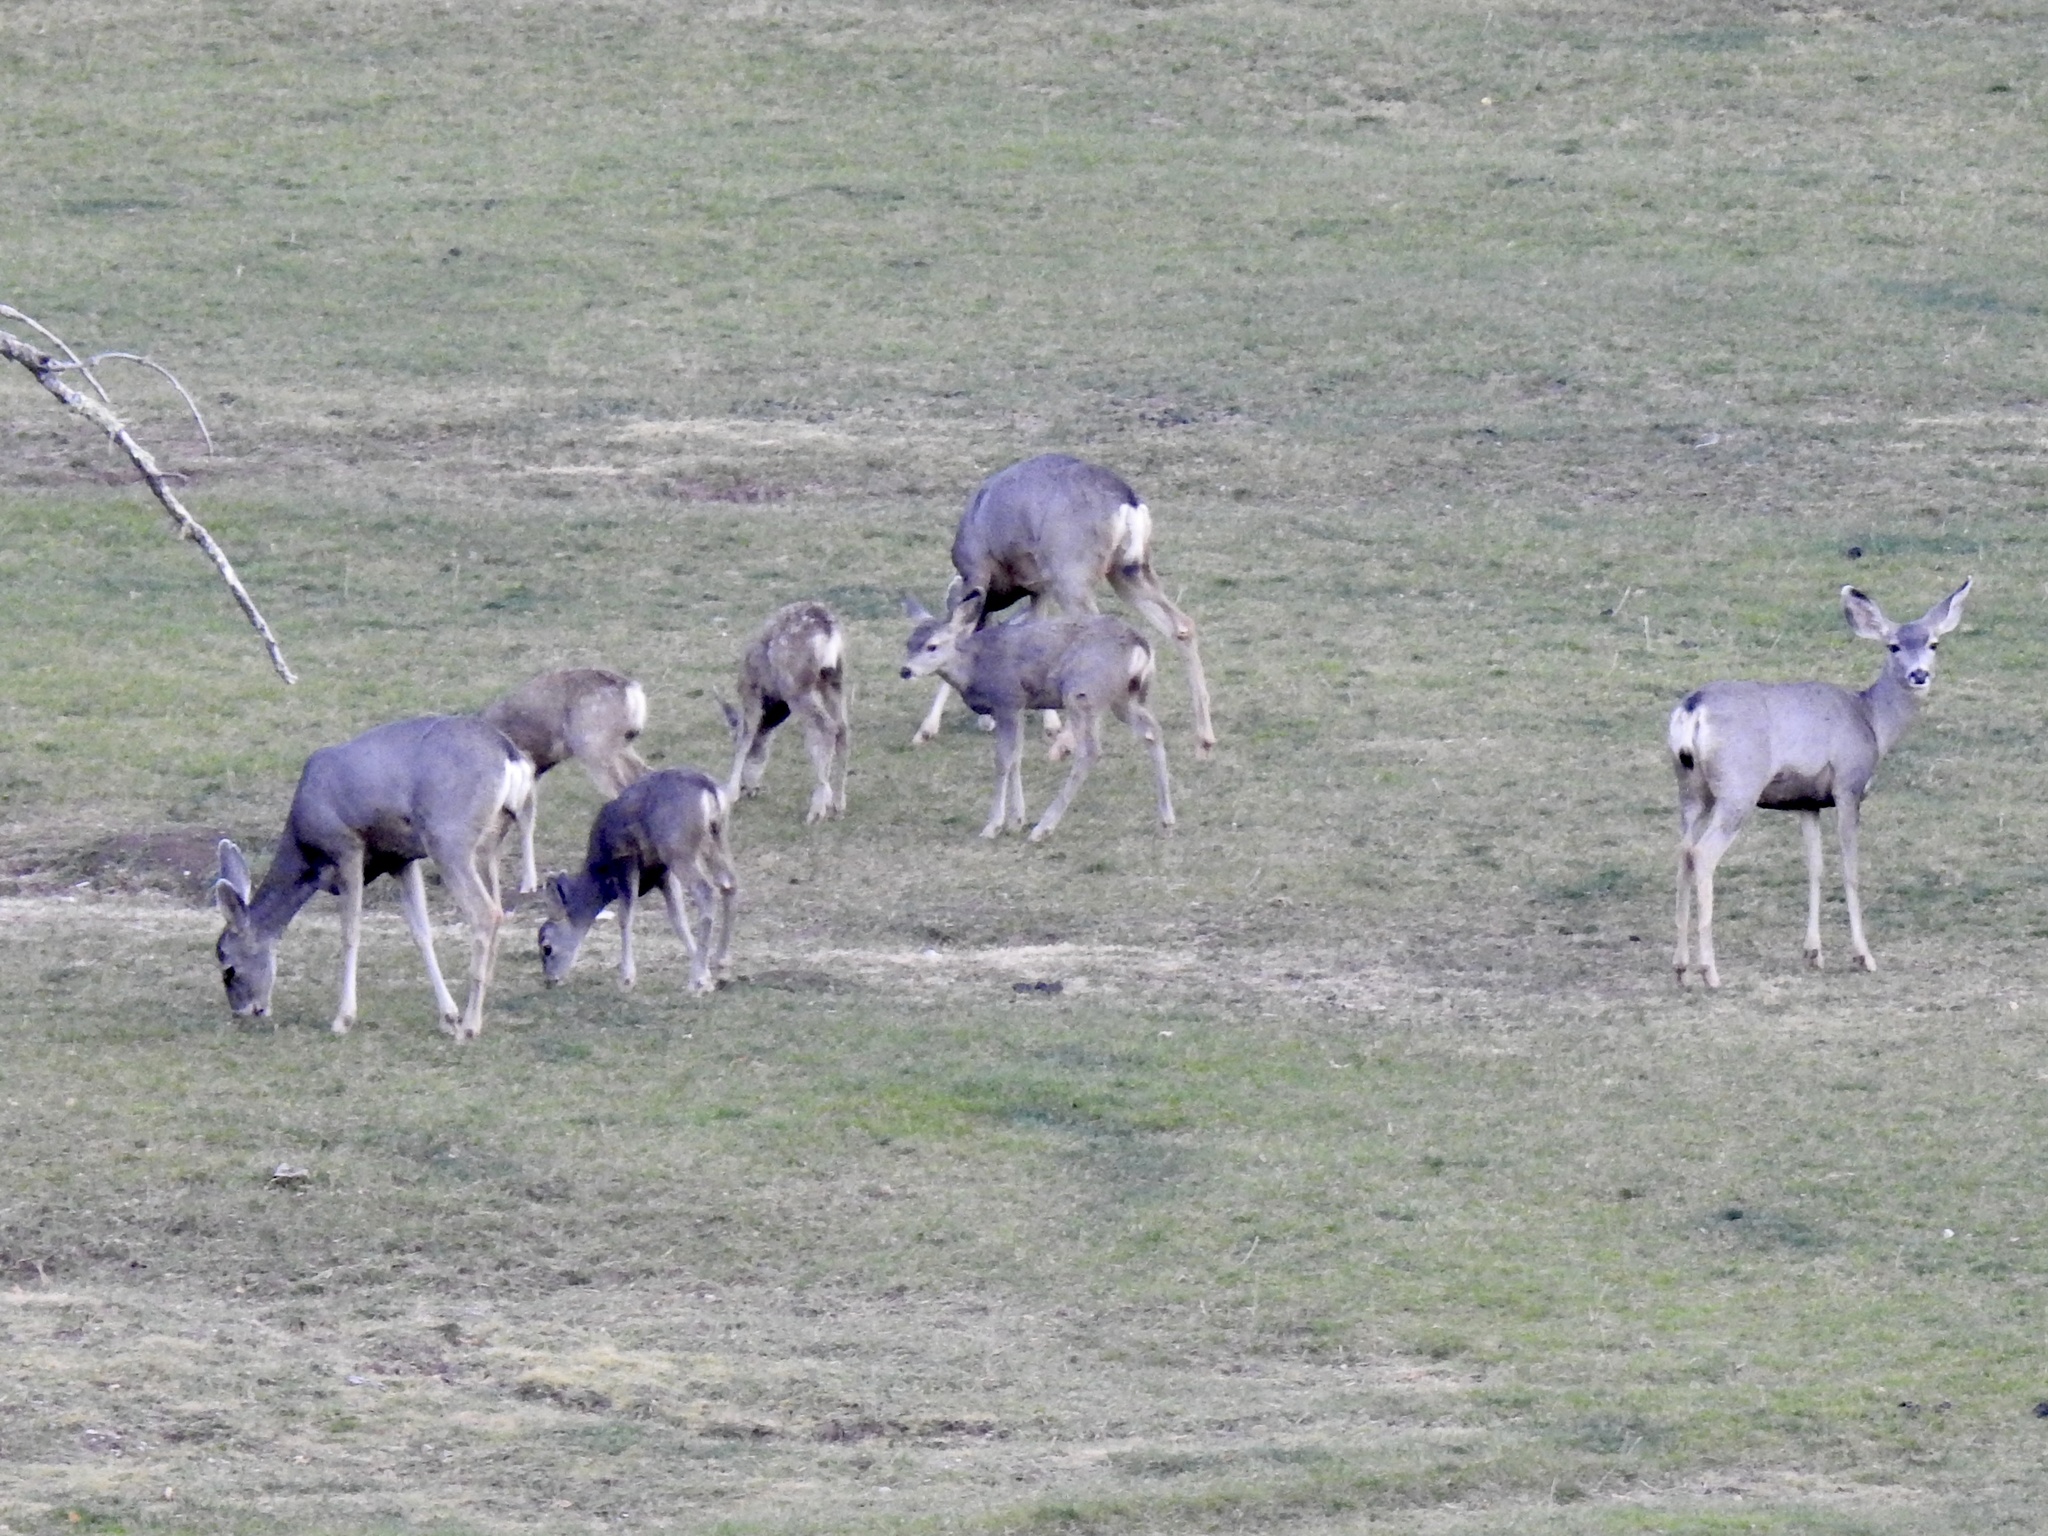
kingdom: Animalia
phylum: Chordata
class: Mammalia
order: Artiodactyla
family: Cervidae
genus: Odocoileus
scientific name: Odocoileus hemionus
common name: Mule deer
